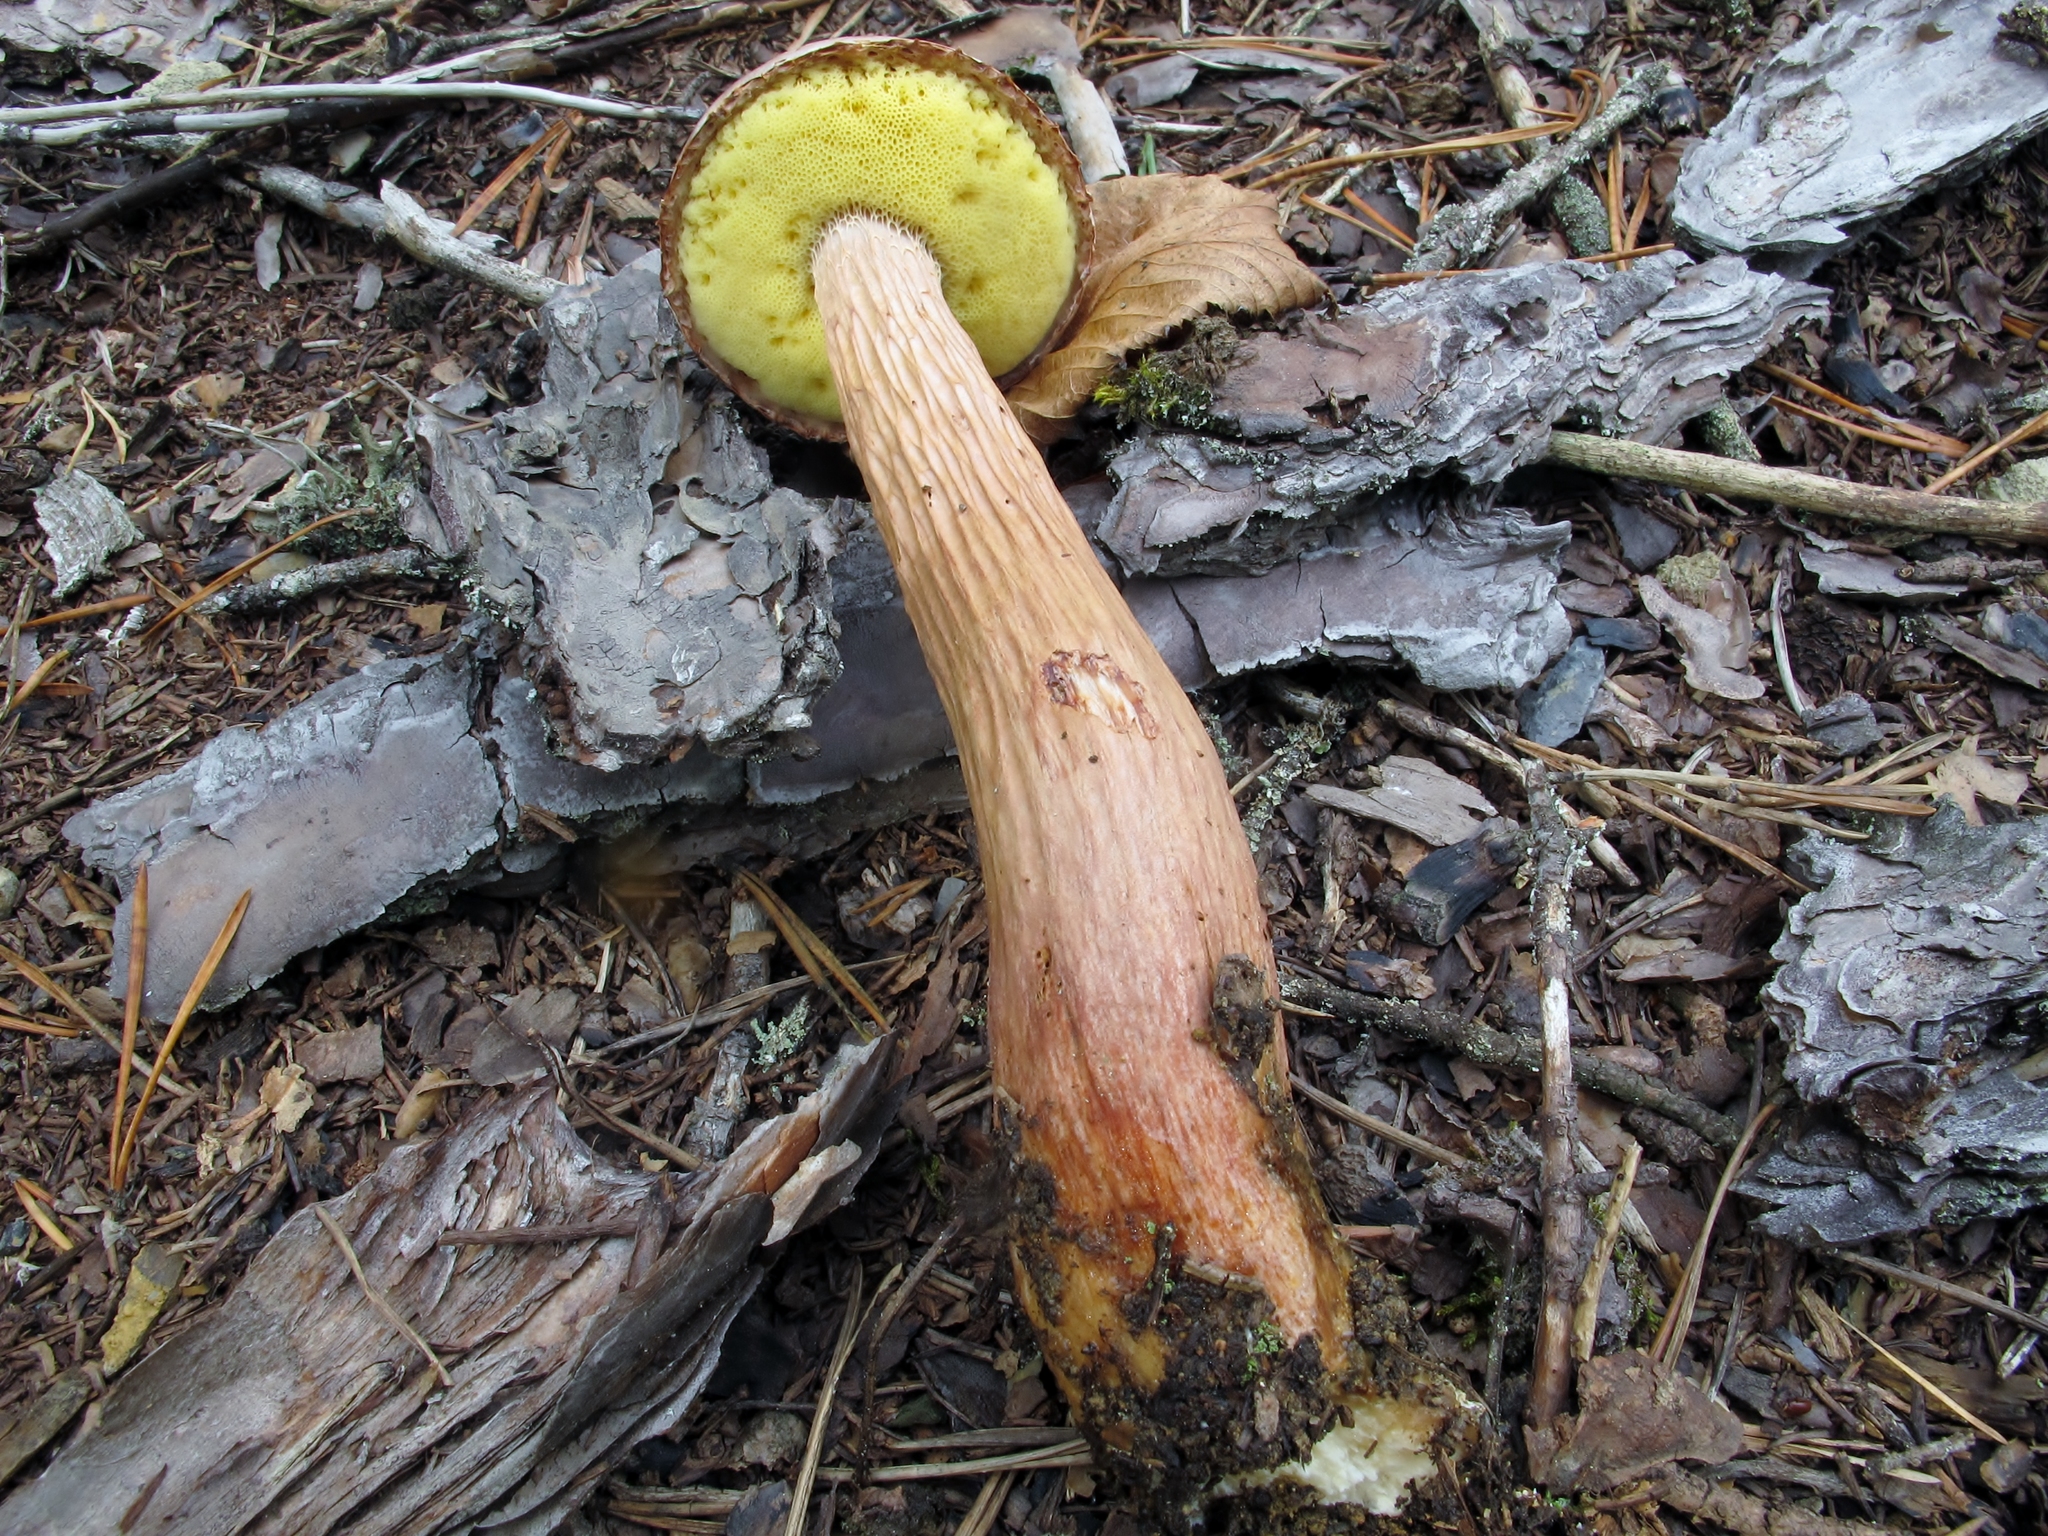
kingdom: Fungi
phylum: Basidiomycota
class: Agaricomycetes
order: Boletales
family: Boletaceae
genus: Aureoboletus
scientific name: Aureoboletus projectellus
